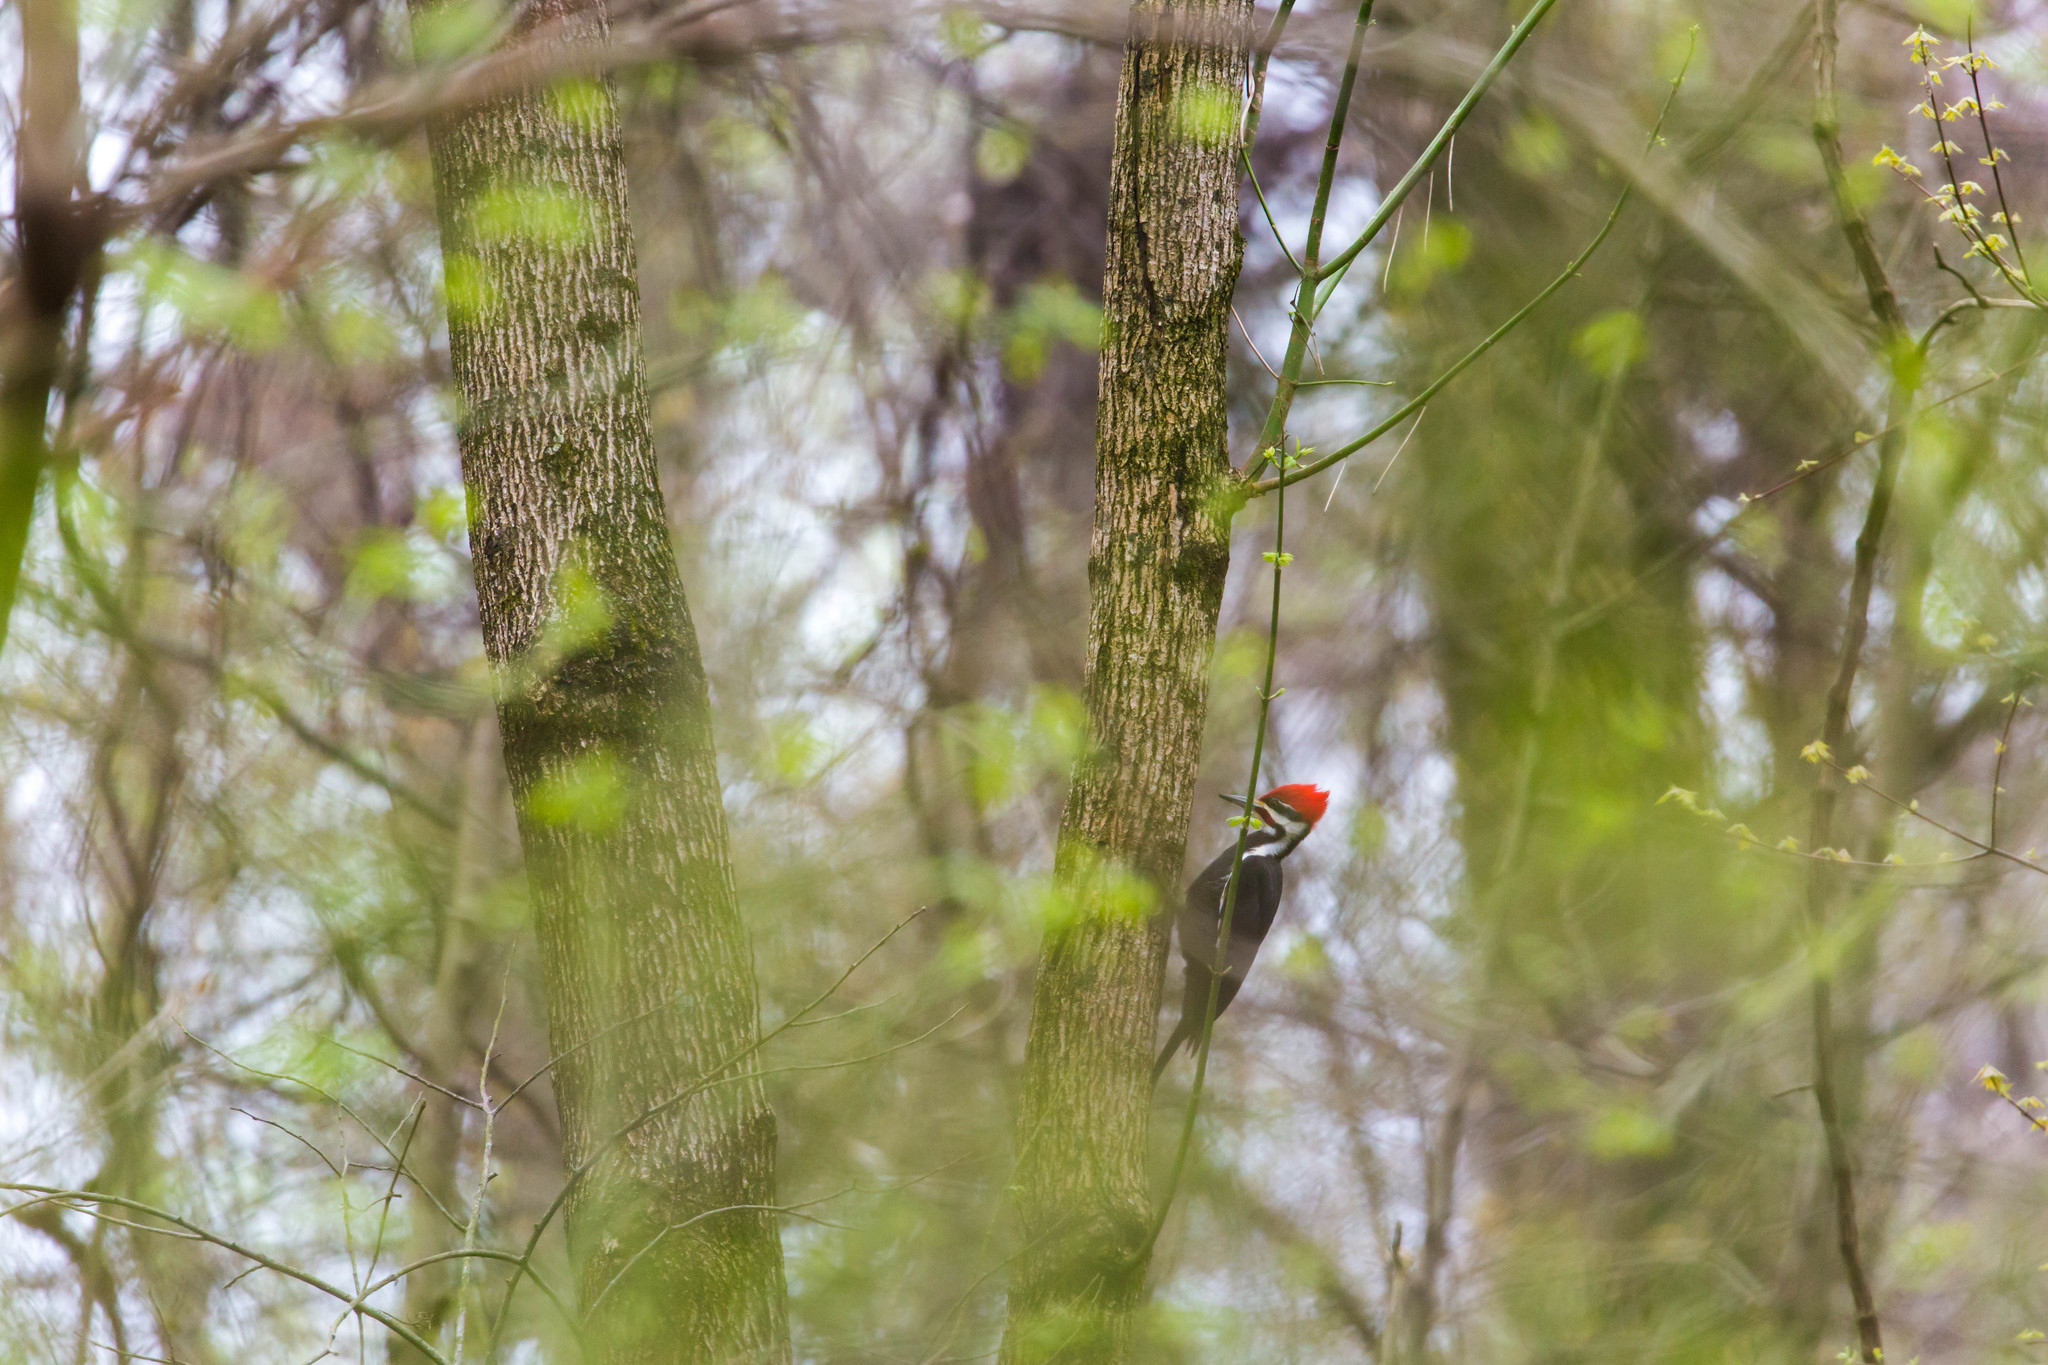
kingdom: Animalia
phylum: Chordata
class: Aves
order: Piciformes
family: Picidae
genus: Dryocopus
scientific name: Dryocopus pileatus
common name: Pileated woodpecker
